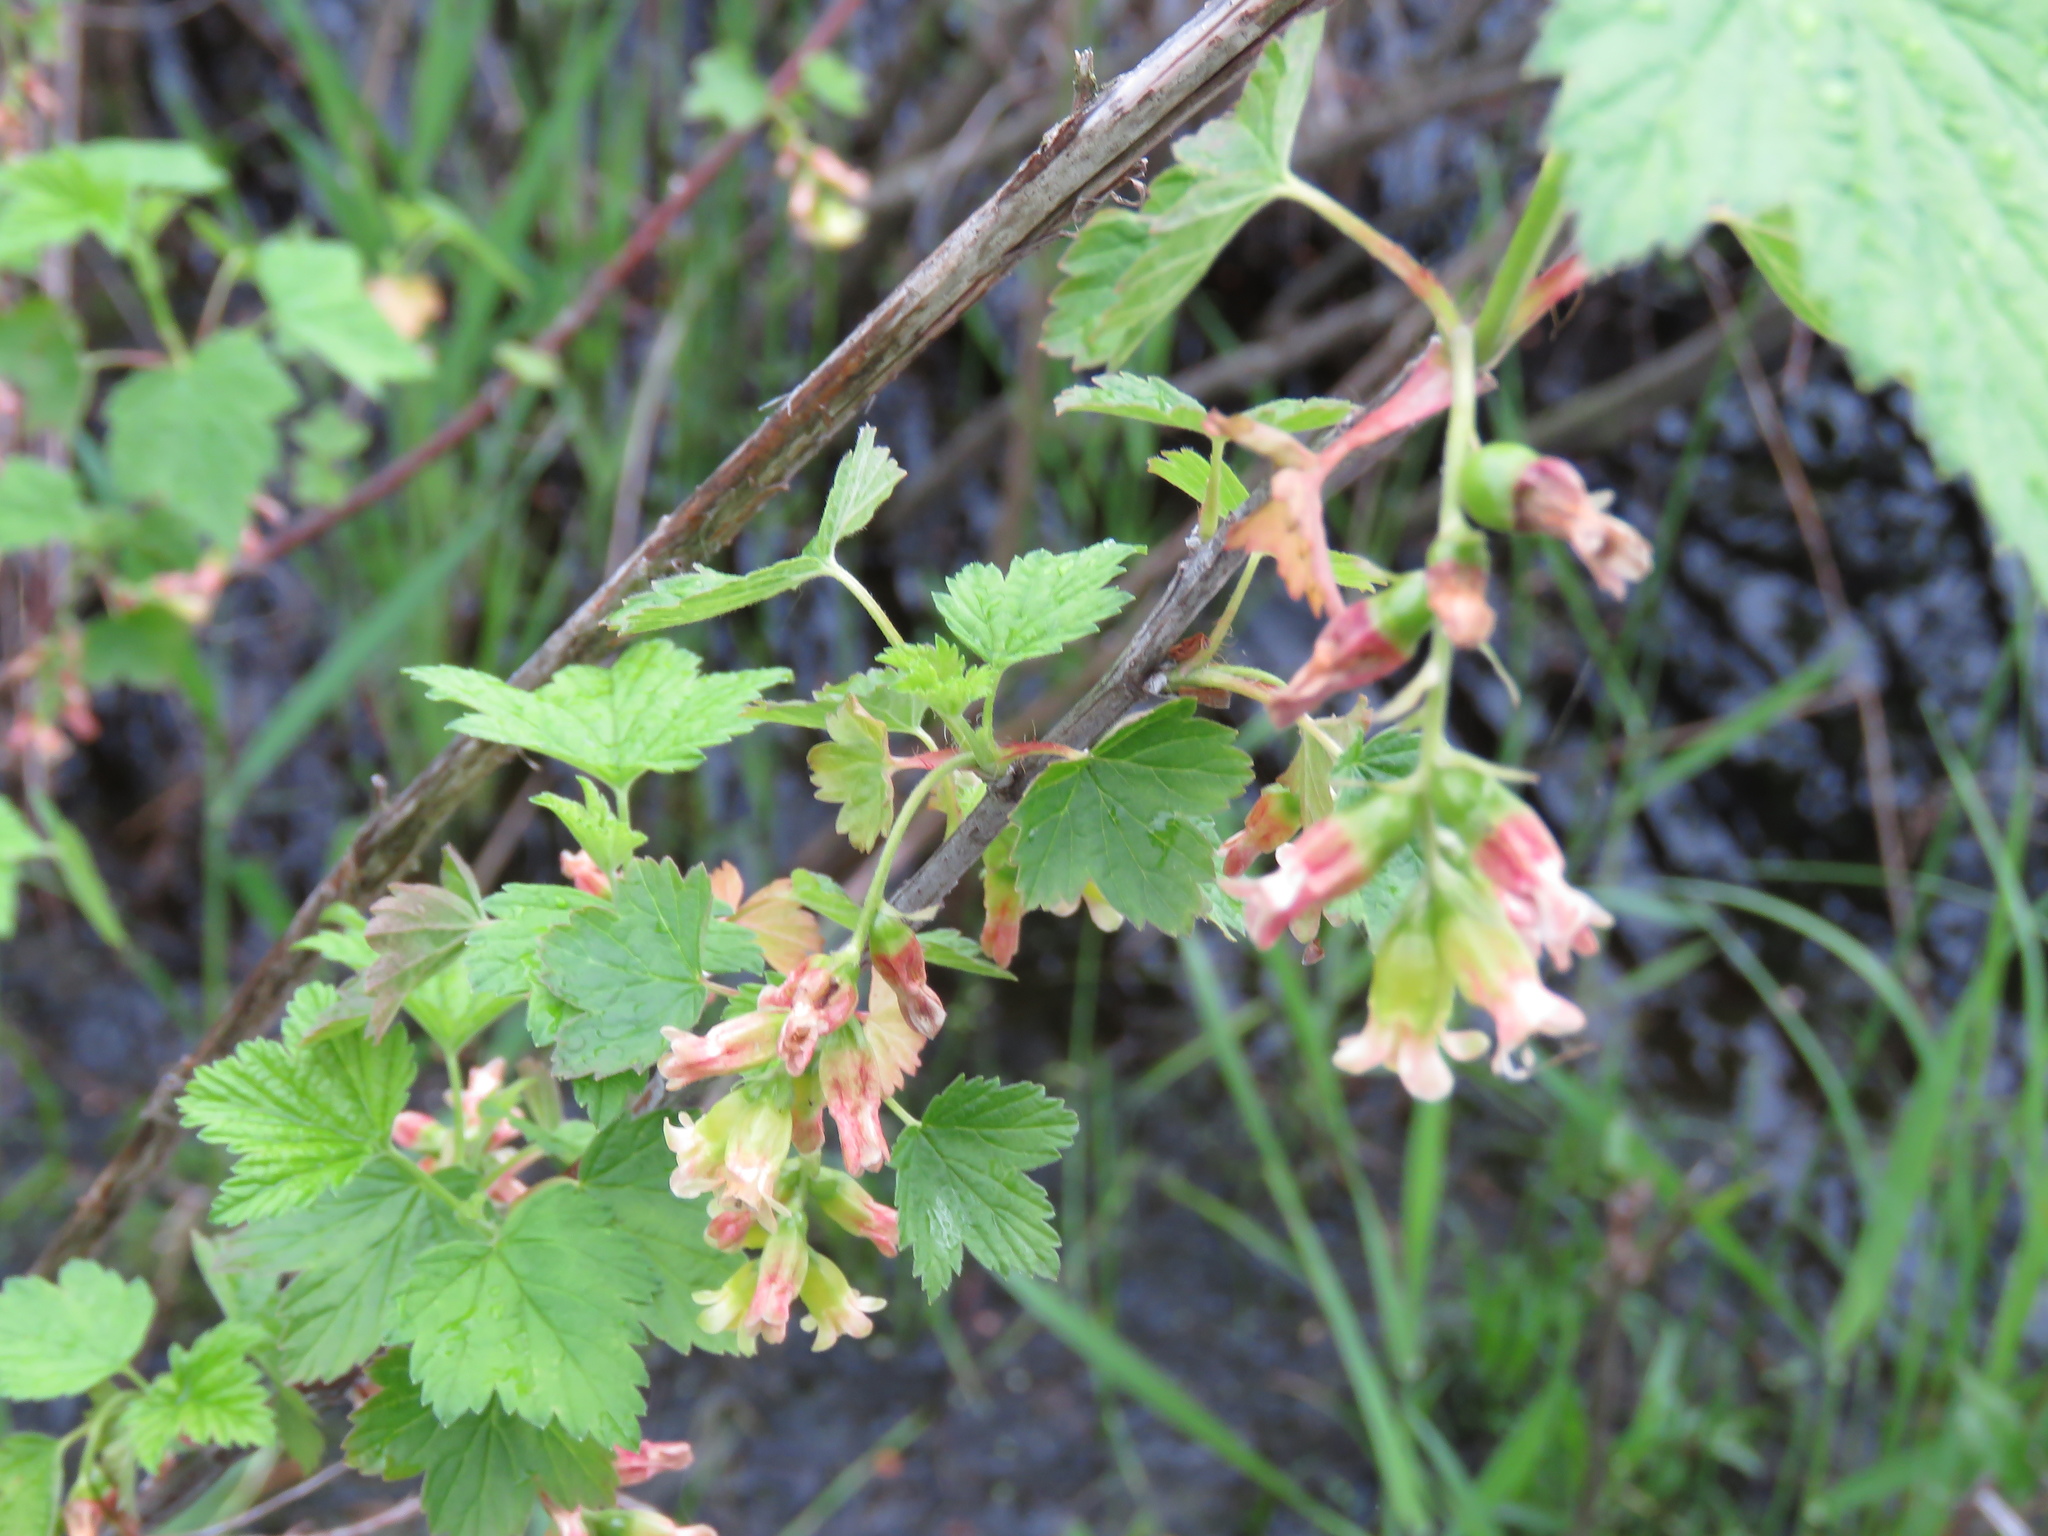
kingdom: Plantae
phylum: Tracheophyta
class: Magnoliopsida
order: Saxifragales
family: Grossulariaceae
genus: Ribes
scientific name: Ribes americanum
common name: American black currant
